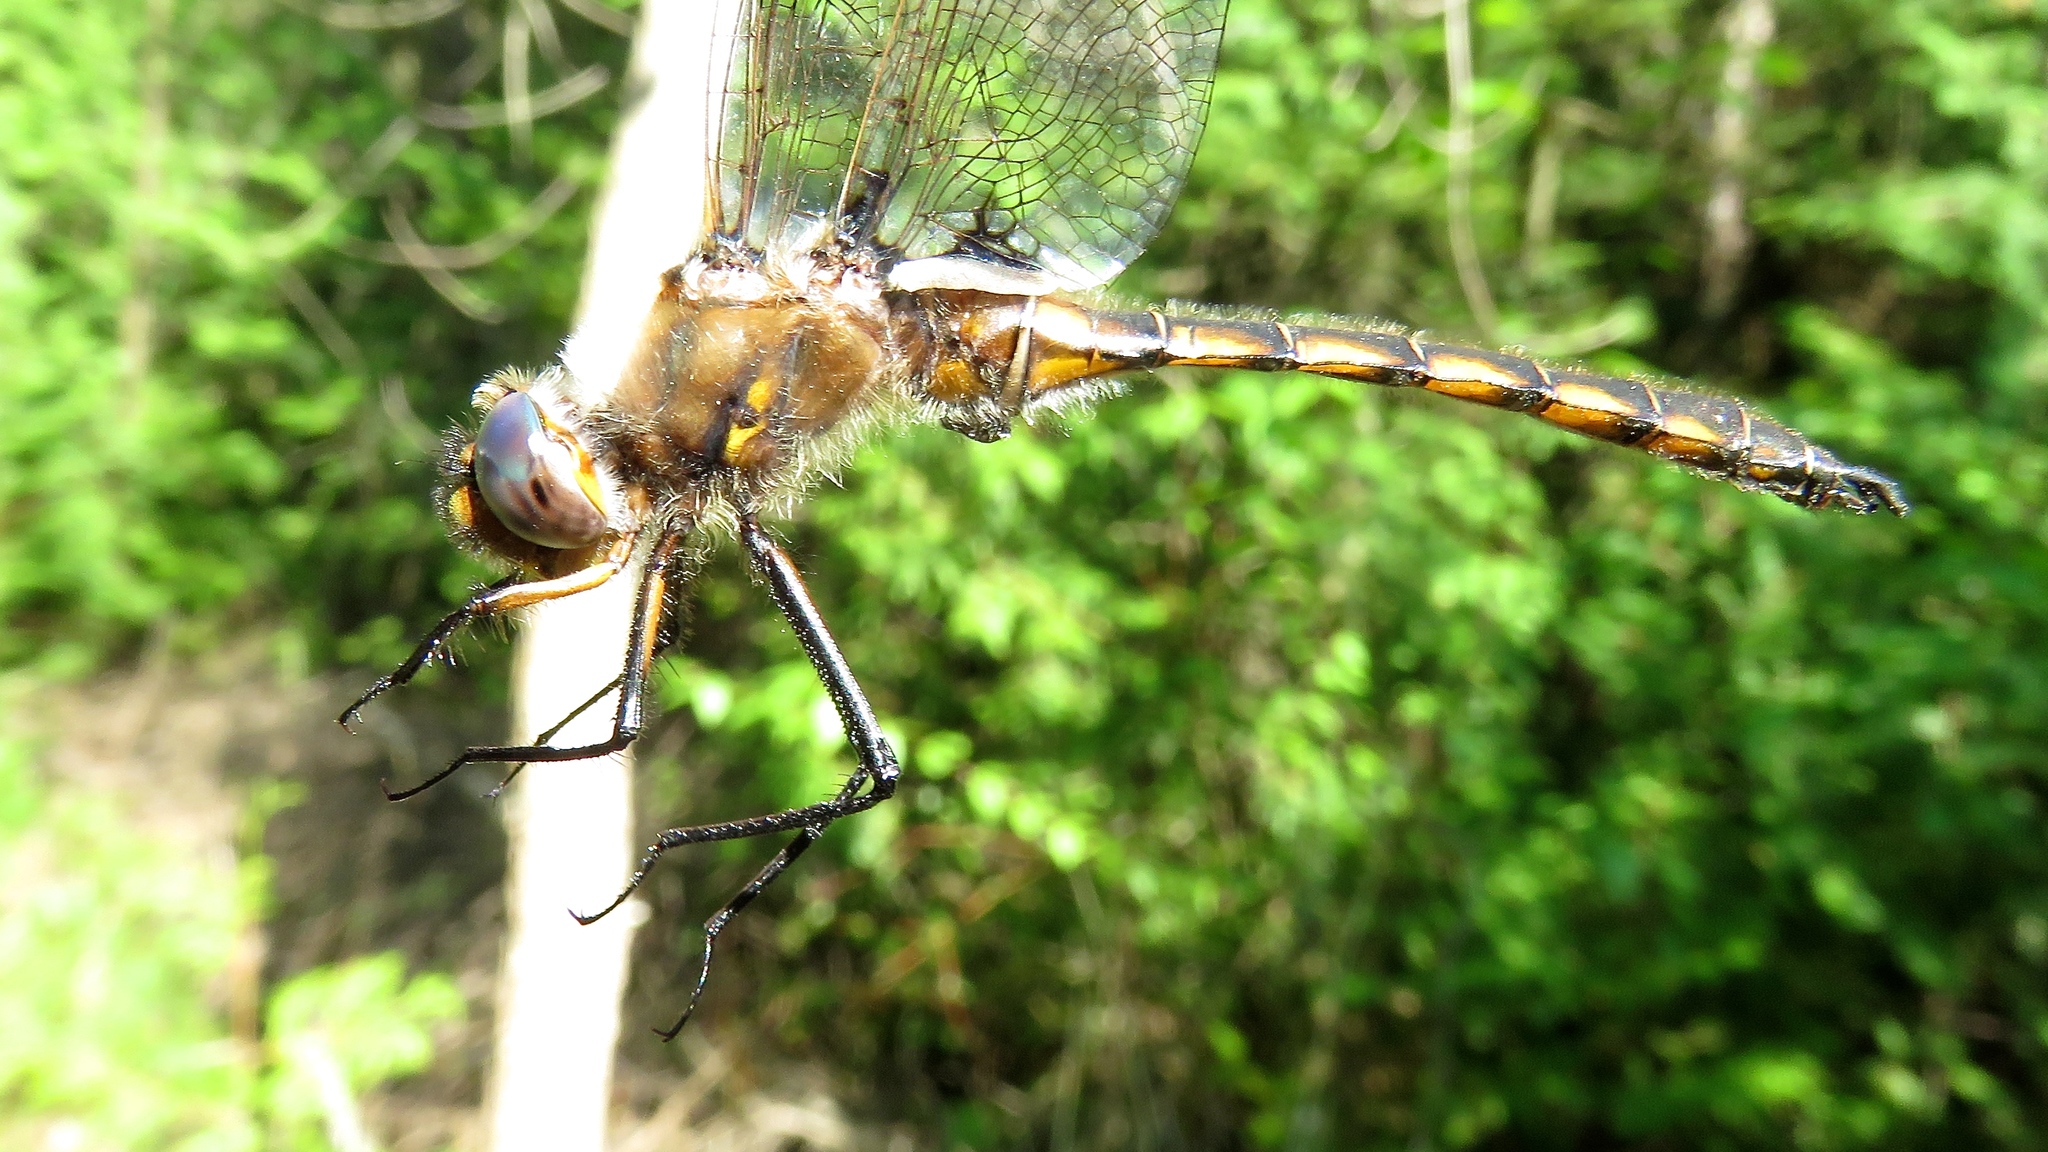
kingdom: Animalia
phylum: Arthropoda
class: Insecta
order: Odonata
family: Corduliidae
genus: Epitheca
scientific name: Epitheca canis
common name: Beaverpond baskettail
